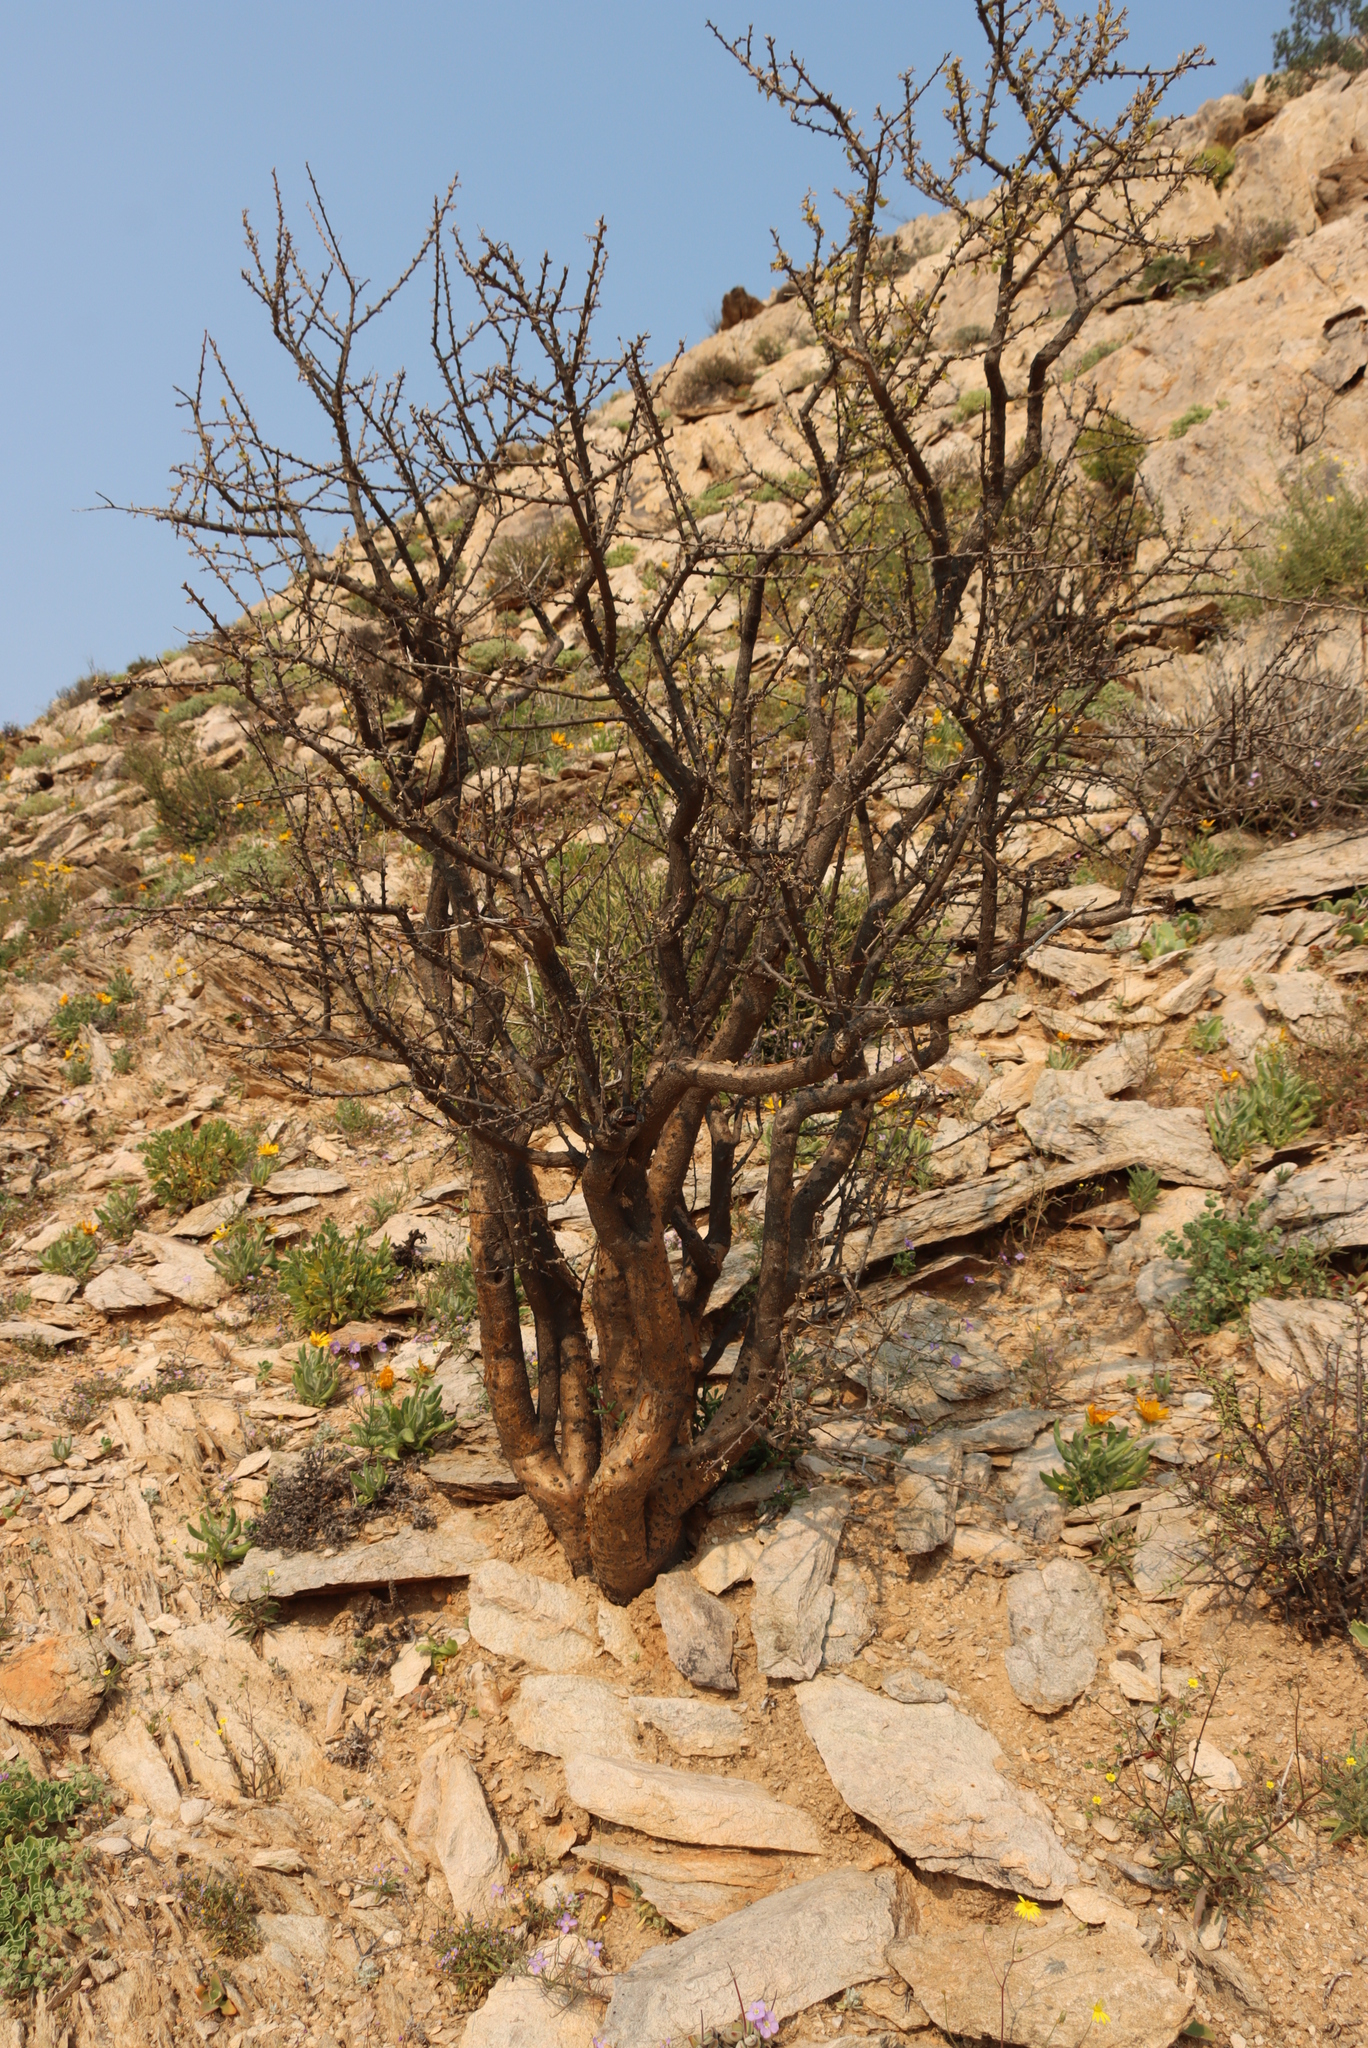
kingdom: Plantae
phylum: Tracheophyta
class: Magnoliopsida
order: Malpighiales
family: Euphorbiaceae
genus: Euphorbia
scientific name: Euphorbia guerichiana
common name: Paper-barked milkbush
